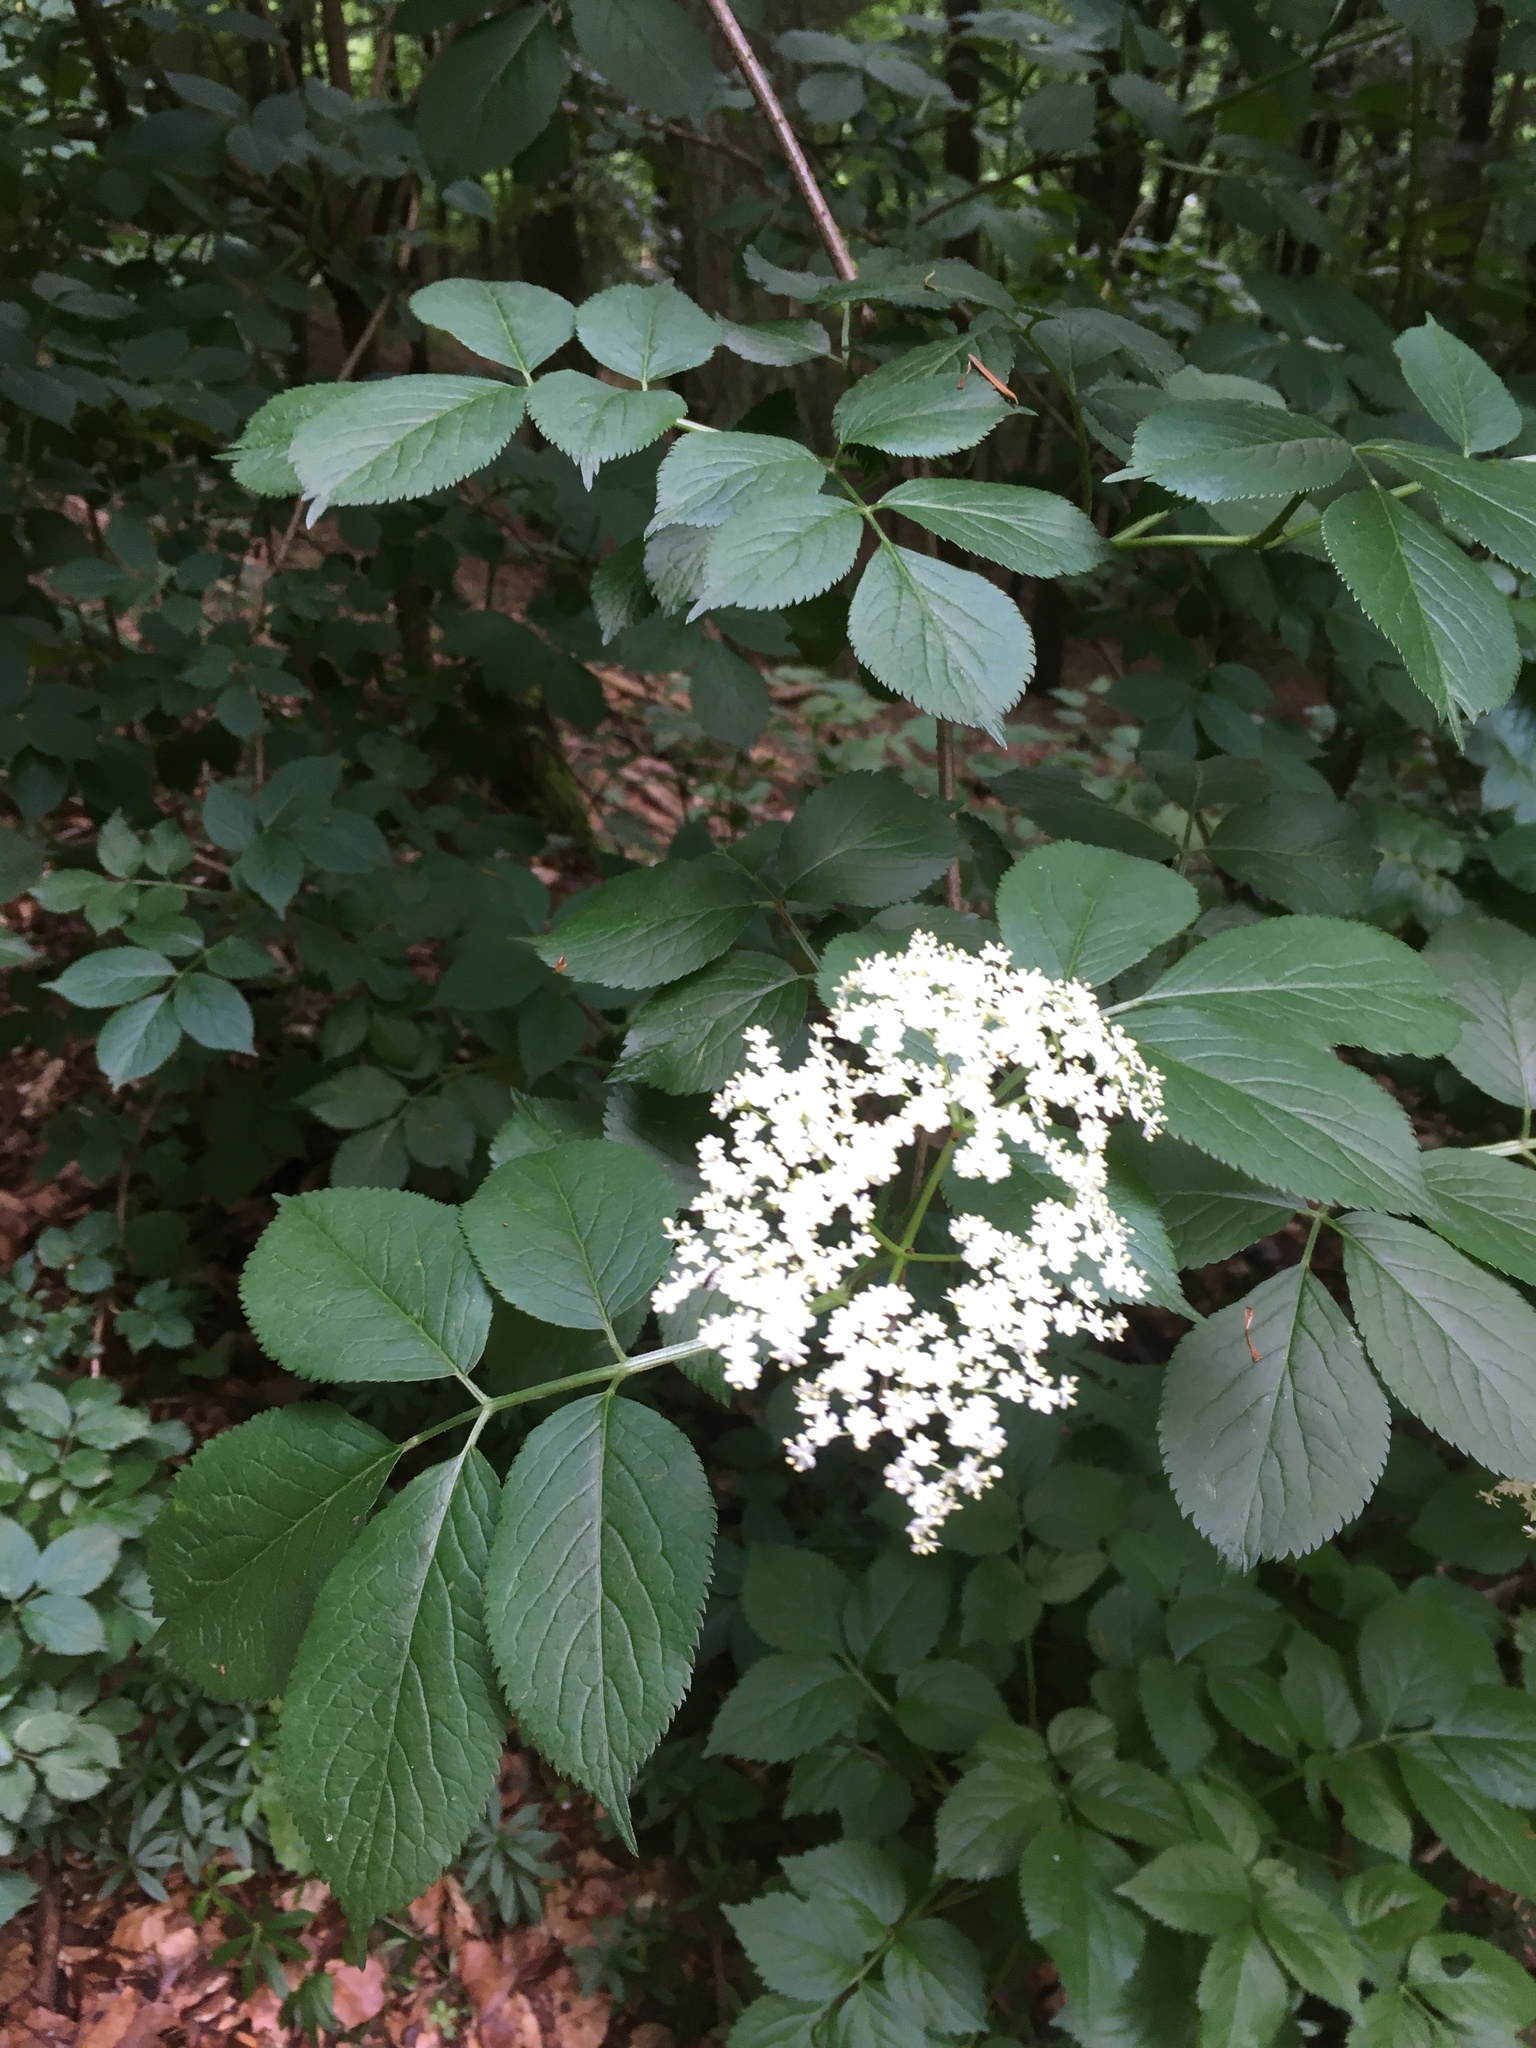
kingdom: Plantae
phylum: Tracheophyta
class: Magnoliopsida
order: Dipsacales
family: Viburnaceae
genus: Sambucus
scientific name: Sambucus nigra
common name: Elder
